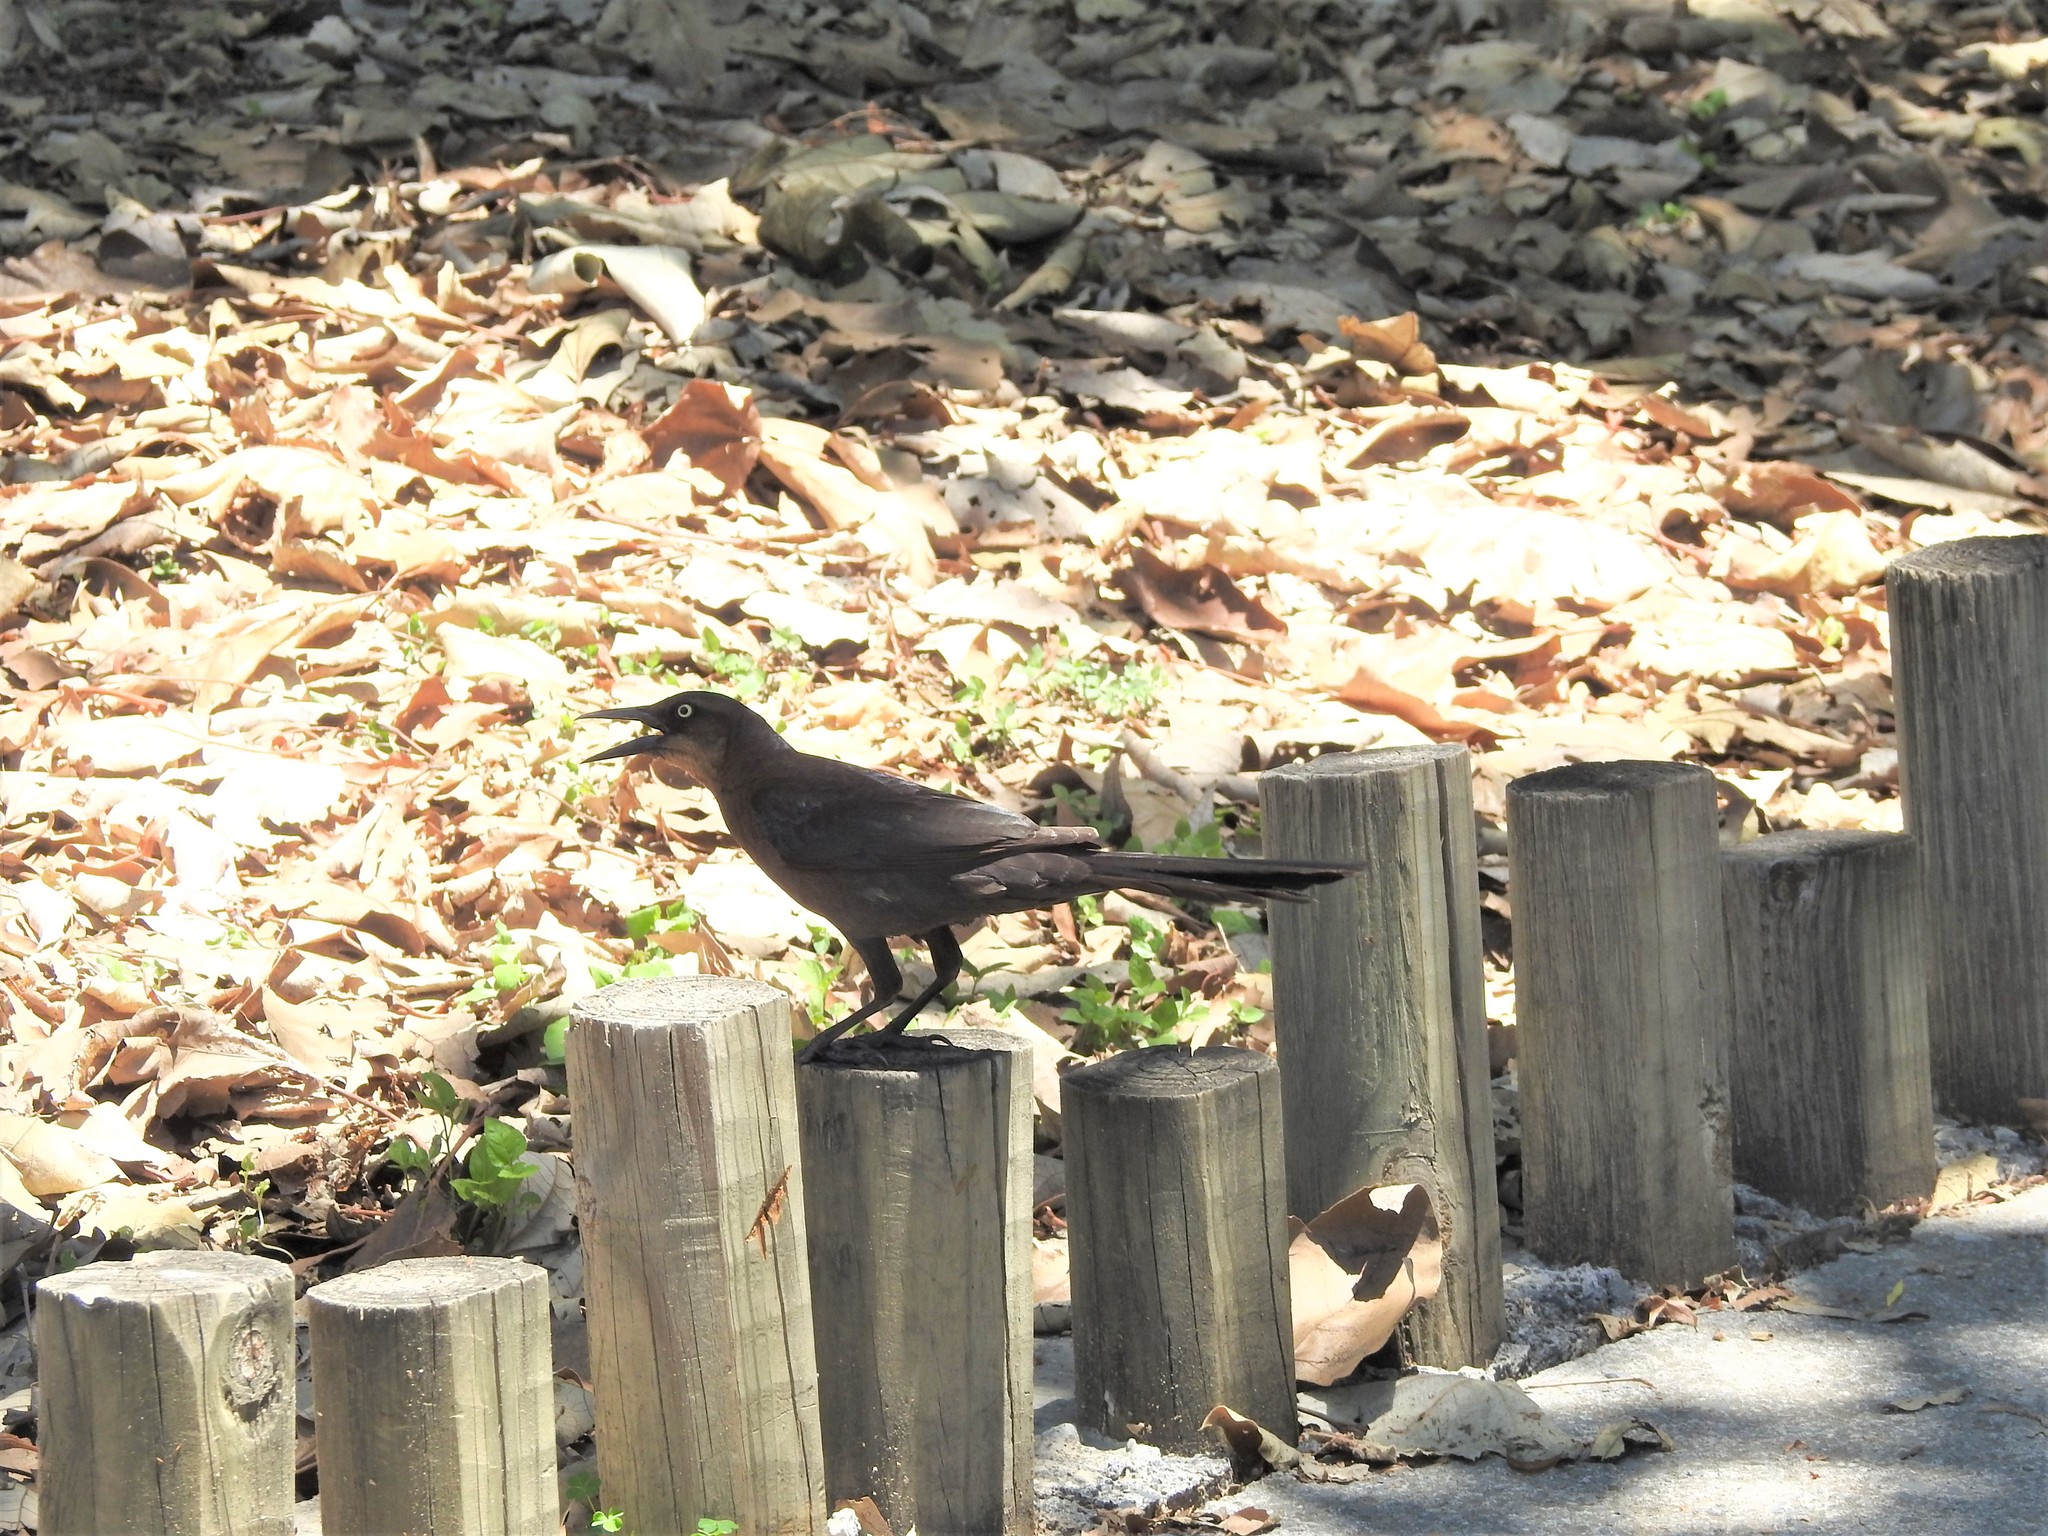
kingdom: Animalia
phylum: Chordata
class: Aves
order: Passeriformes
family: Icteridae
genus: Quiscalus
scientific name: Quiscalus mexicanus
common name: Great-tailed grackle
